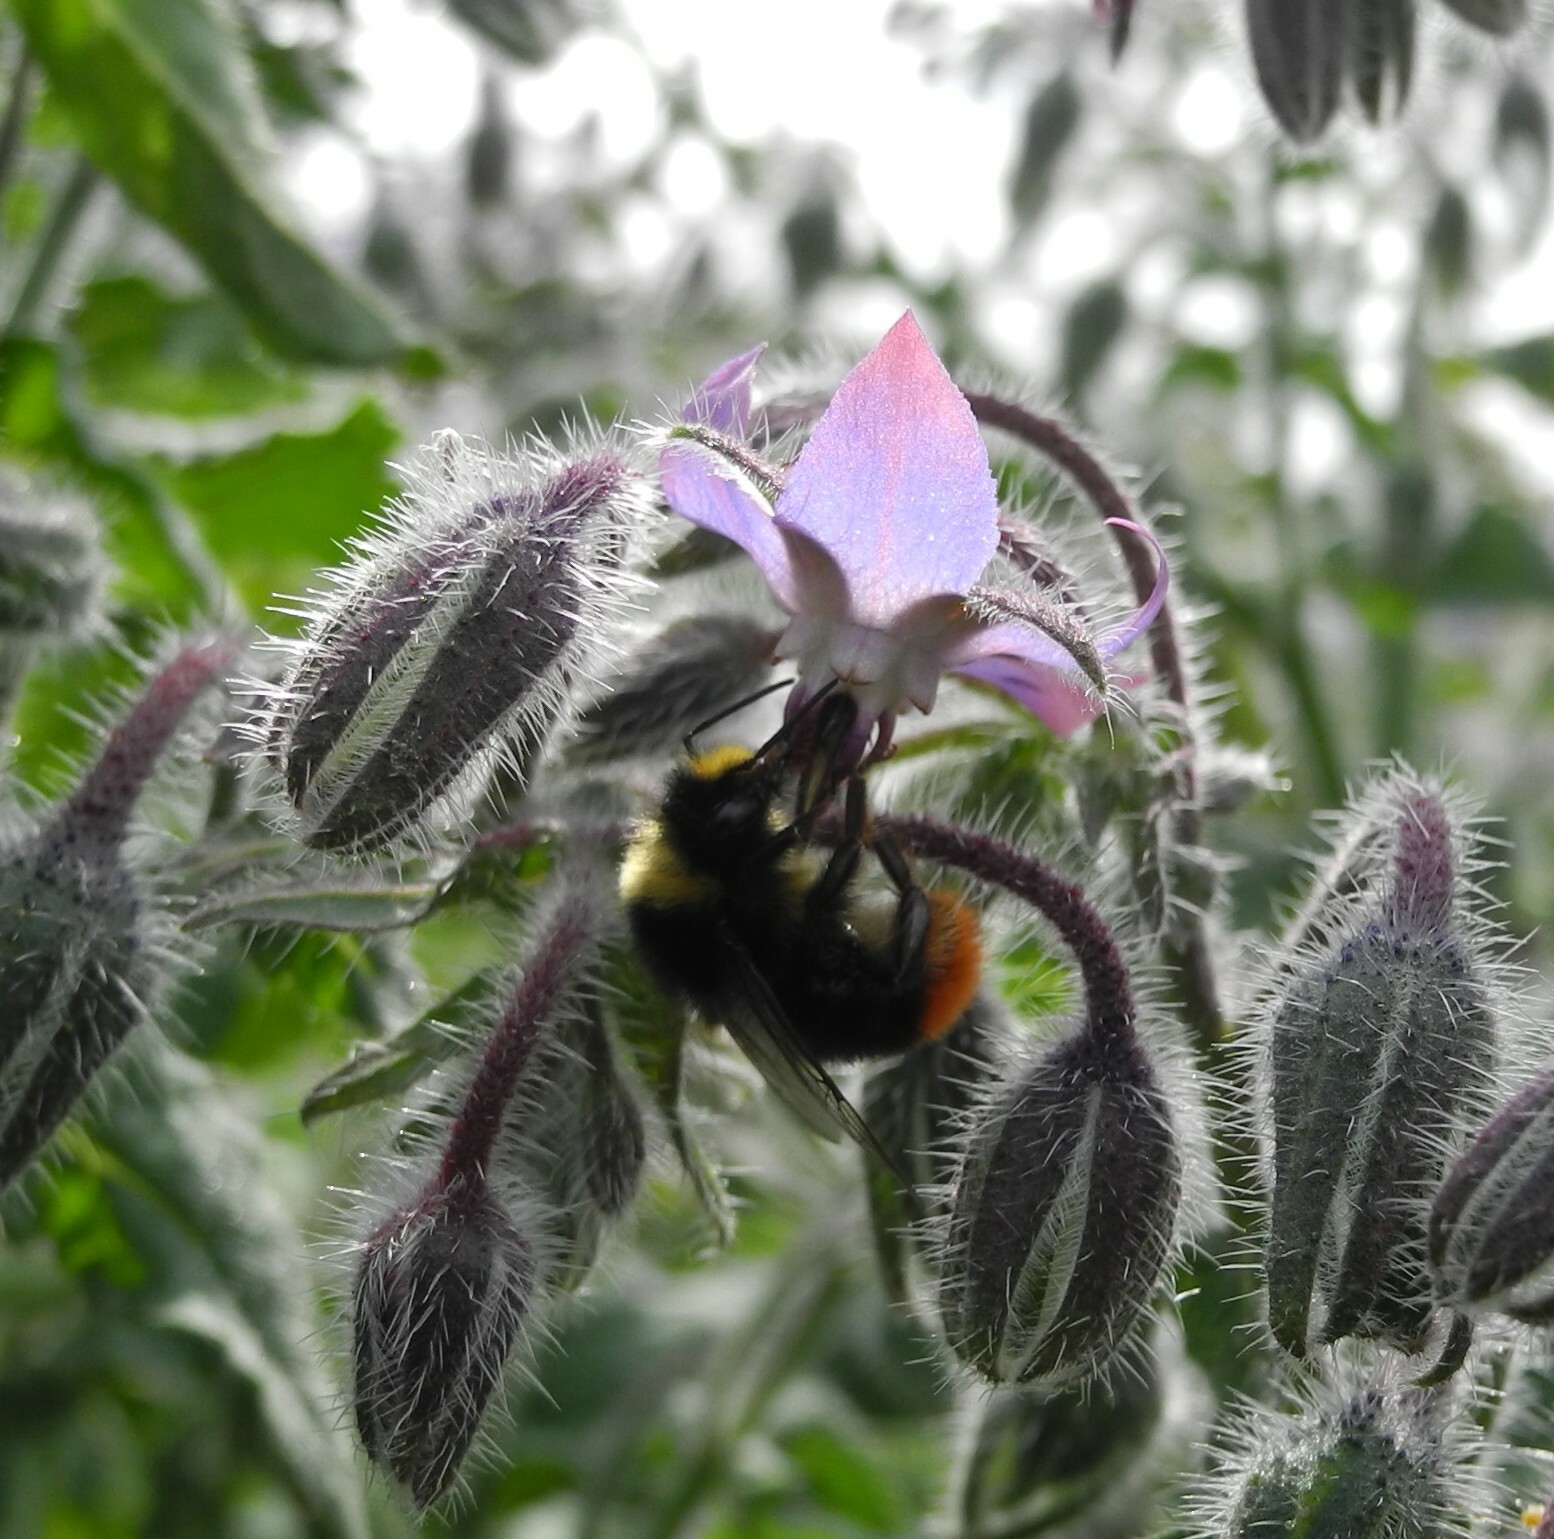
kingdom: Animalia
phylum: Arthropoda
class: Insecta
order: Hymenoptera
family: Apidae
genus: Bombus
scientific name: Bombus lapidarius
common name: Large red-tailed humble-bee
